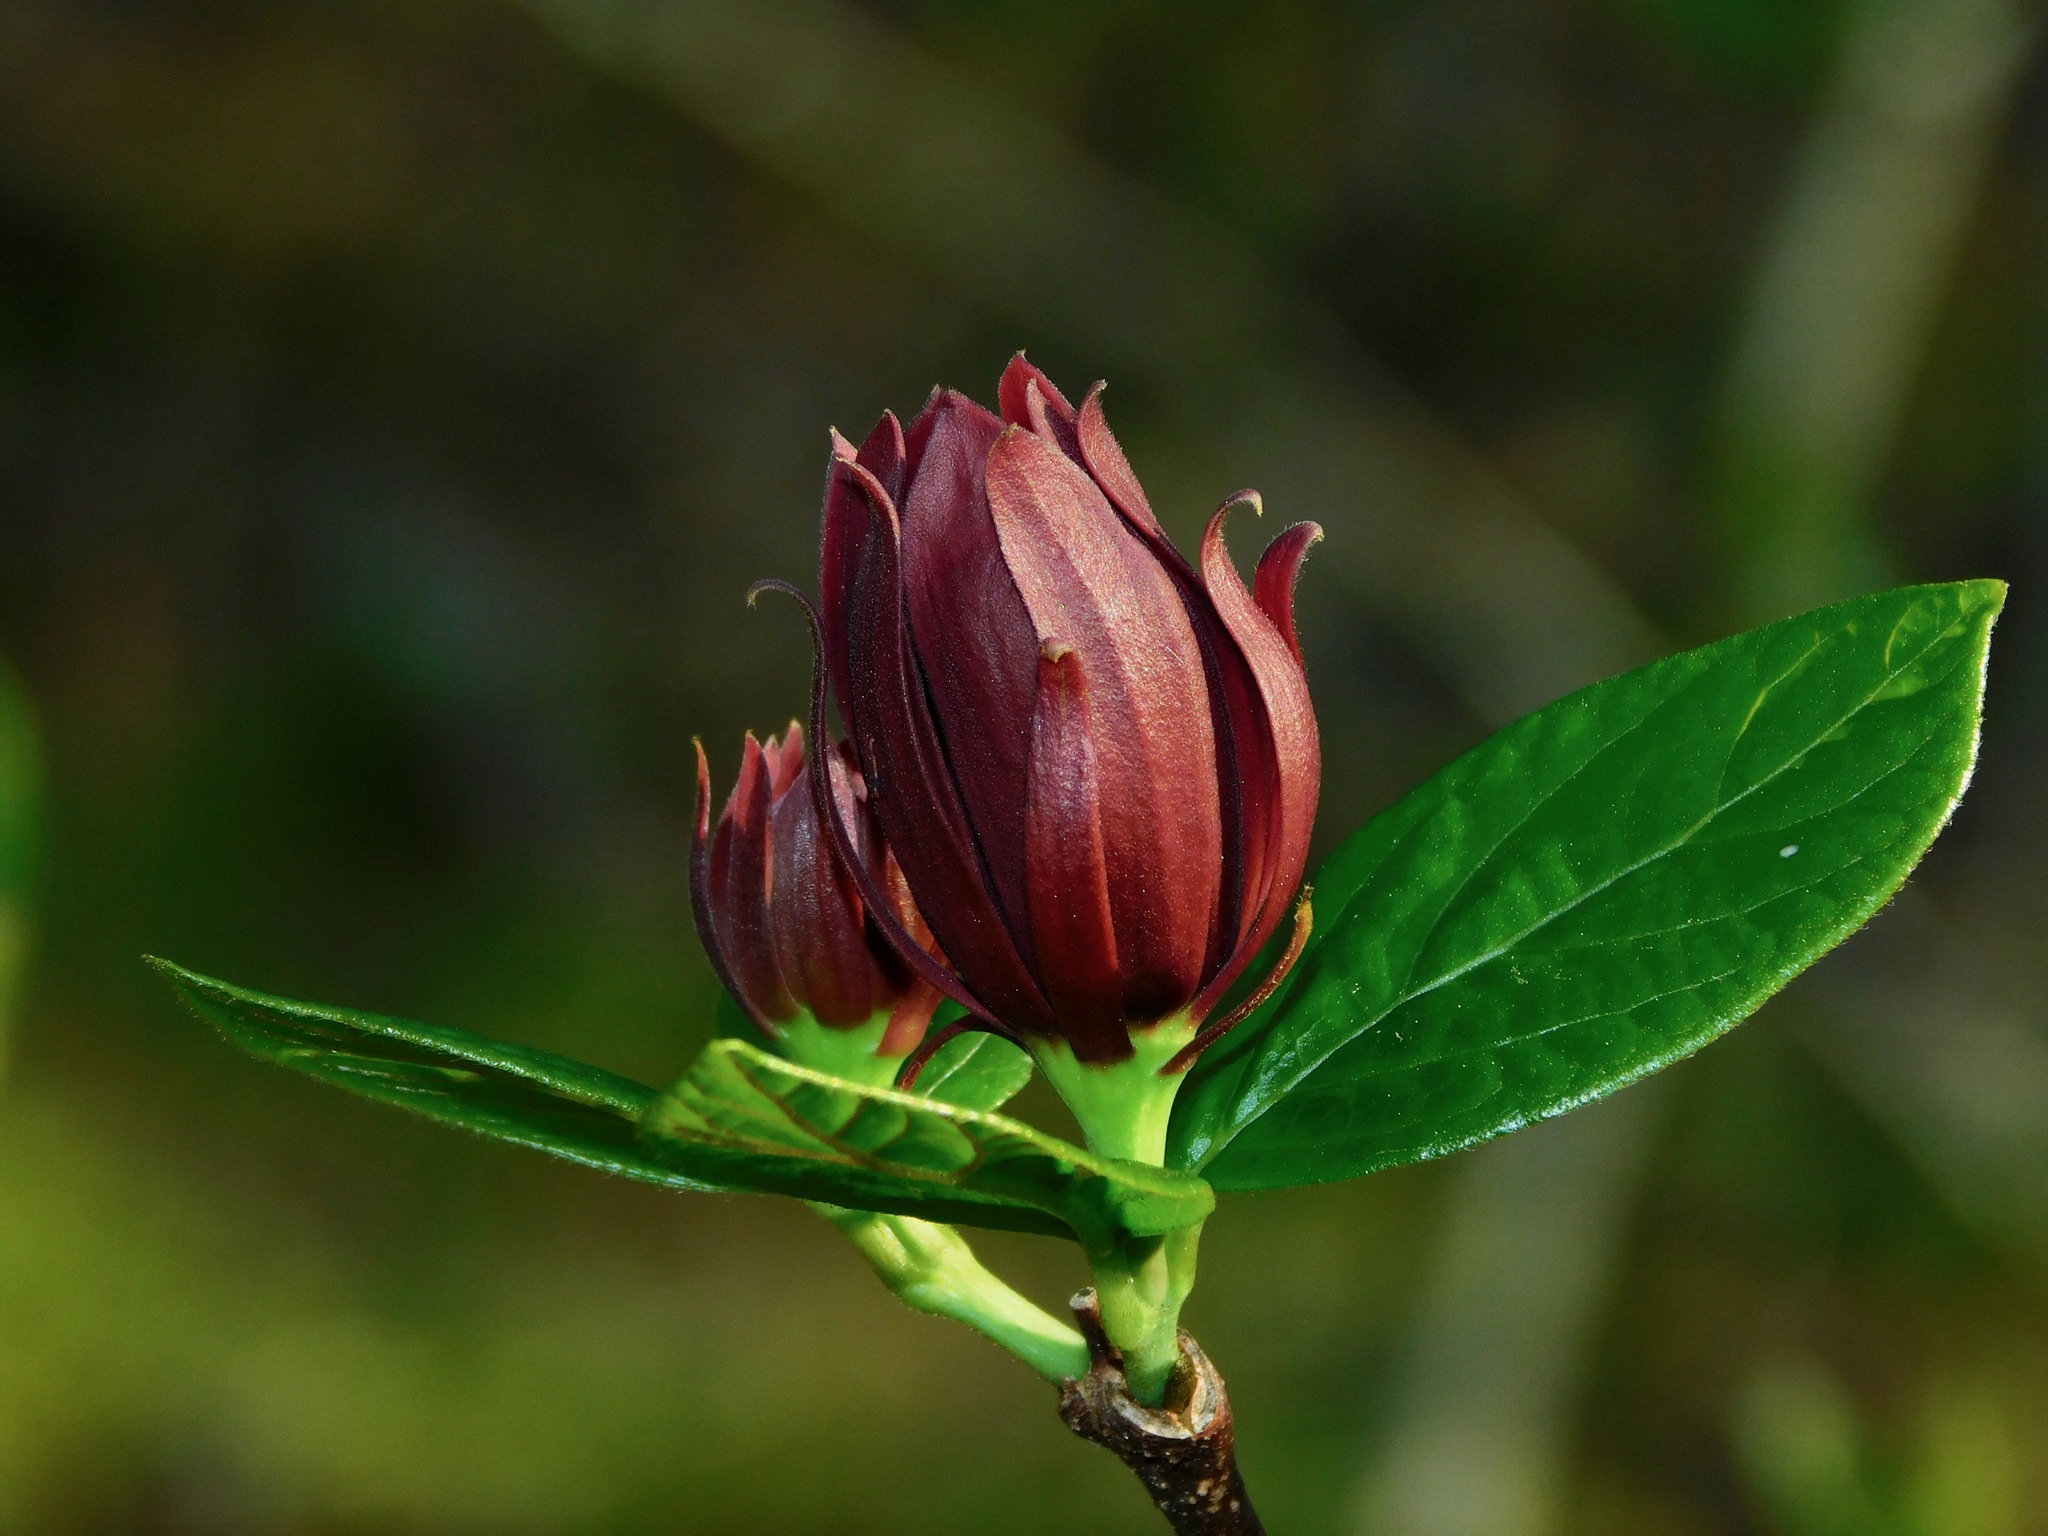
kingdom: Plantae
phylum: Tracheophyta
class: Magnoliopsida
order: Laurales
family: Calycanthaceae
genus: Calycanthus
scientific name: Calycanthus floridus
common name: Carolina-allspice
